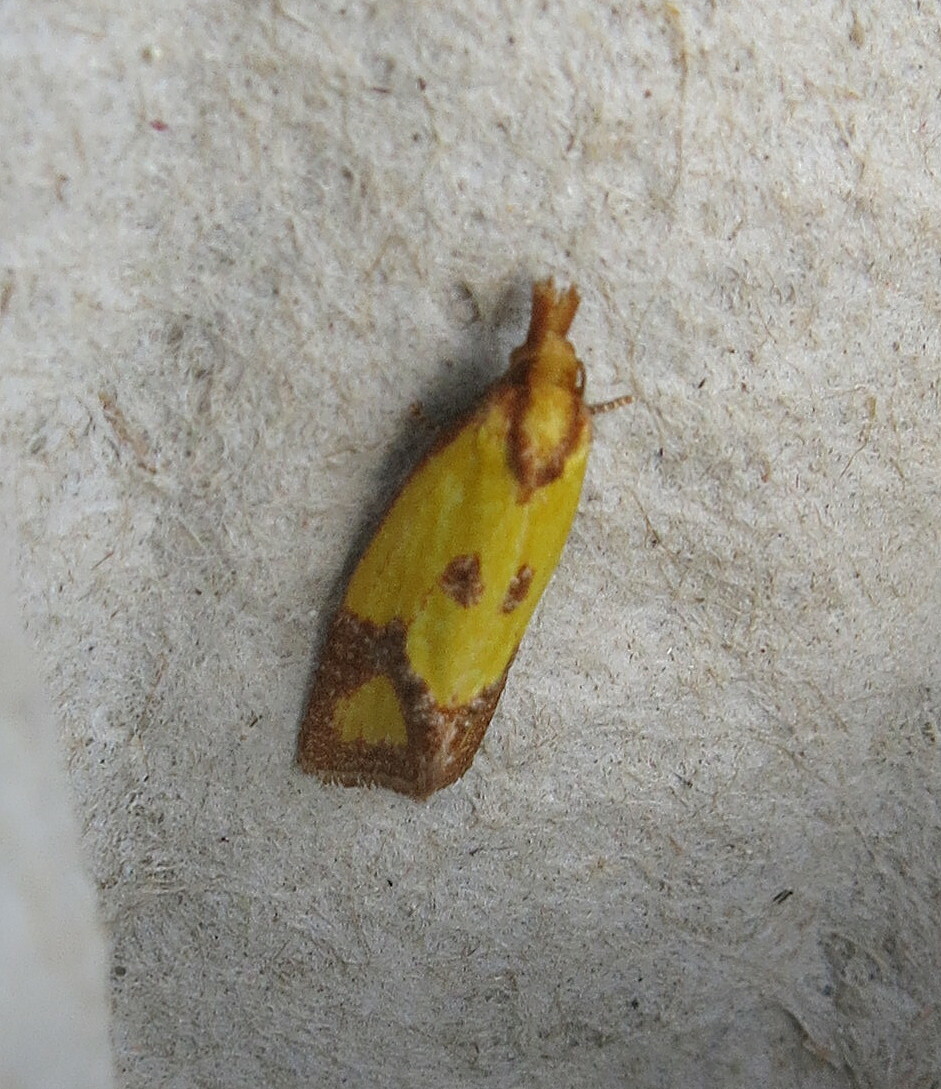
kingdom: Animalia
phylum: Arthropoda
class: Insecta
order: Lepidoptera
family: Tortricidae
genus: Agapeta
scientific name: Agapeta zoegana
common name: Sulfur knapweed root moth
